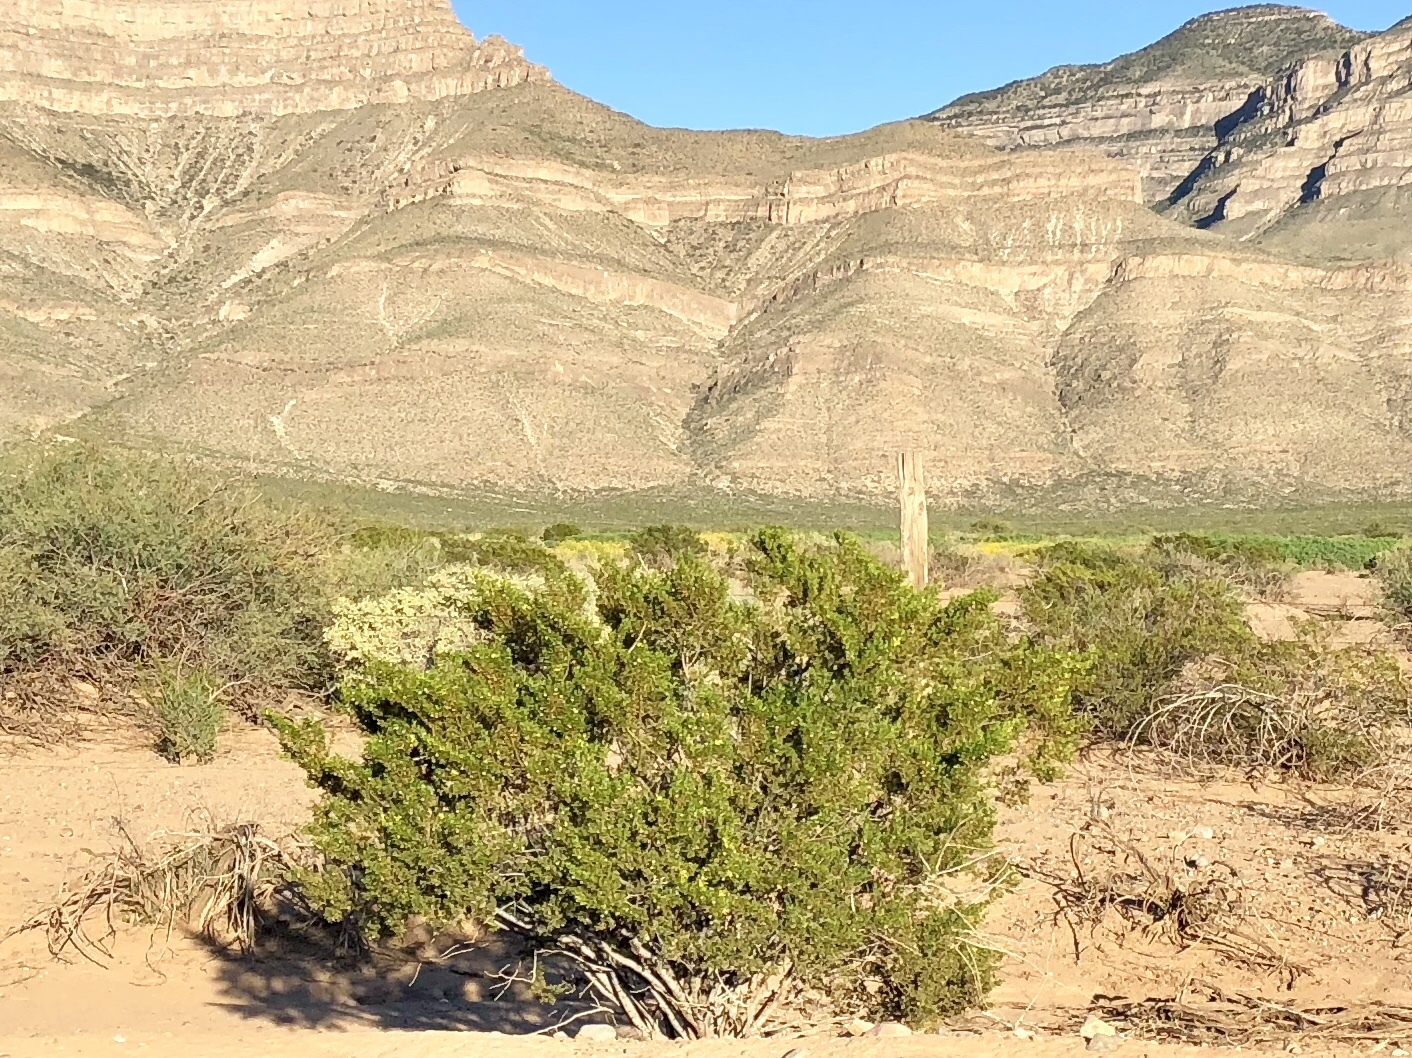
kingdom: Plantae
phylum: Tracheophyta
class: Magnoliopsida
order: Zygophyllales
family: Zygophyllaceae
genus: Larrea
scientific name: Larrea tridentata
